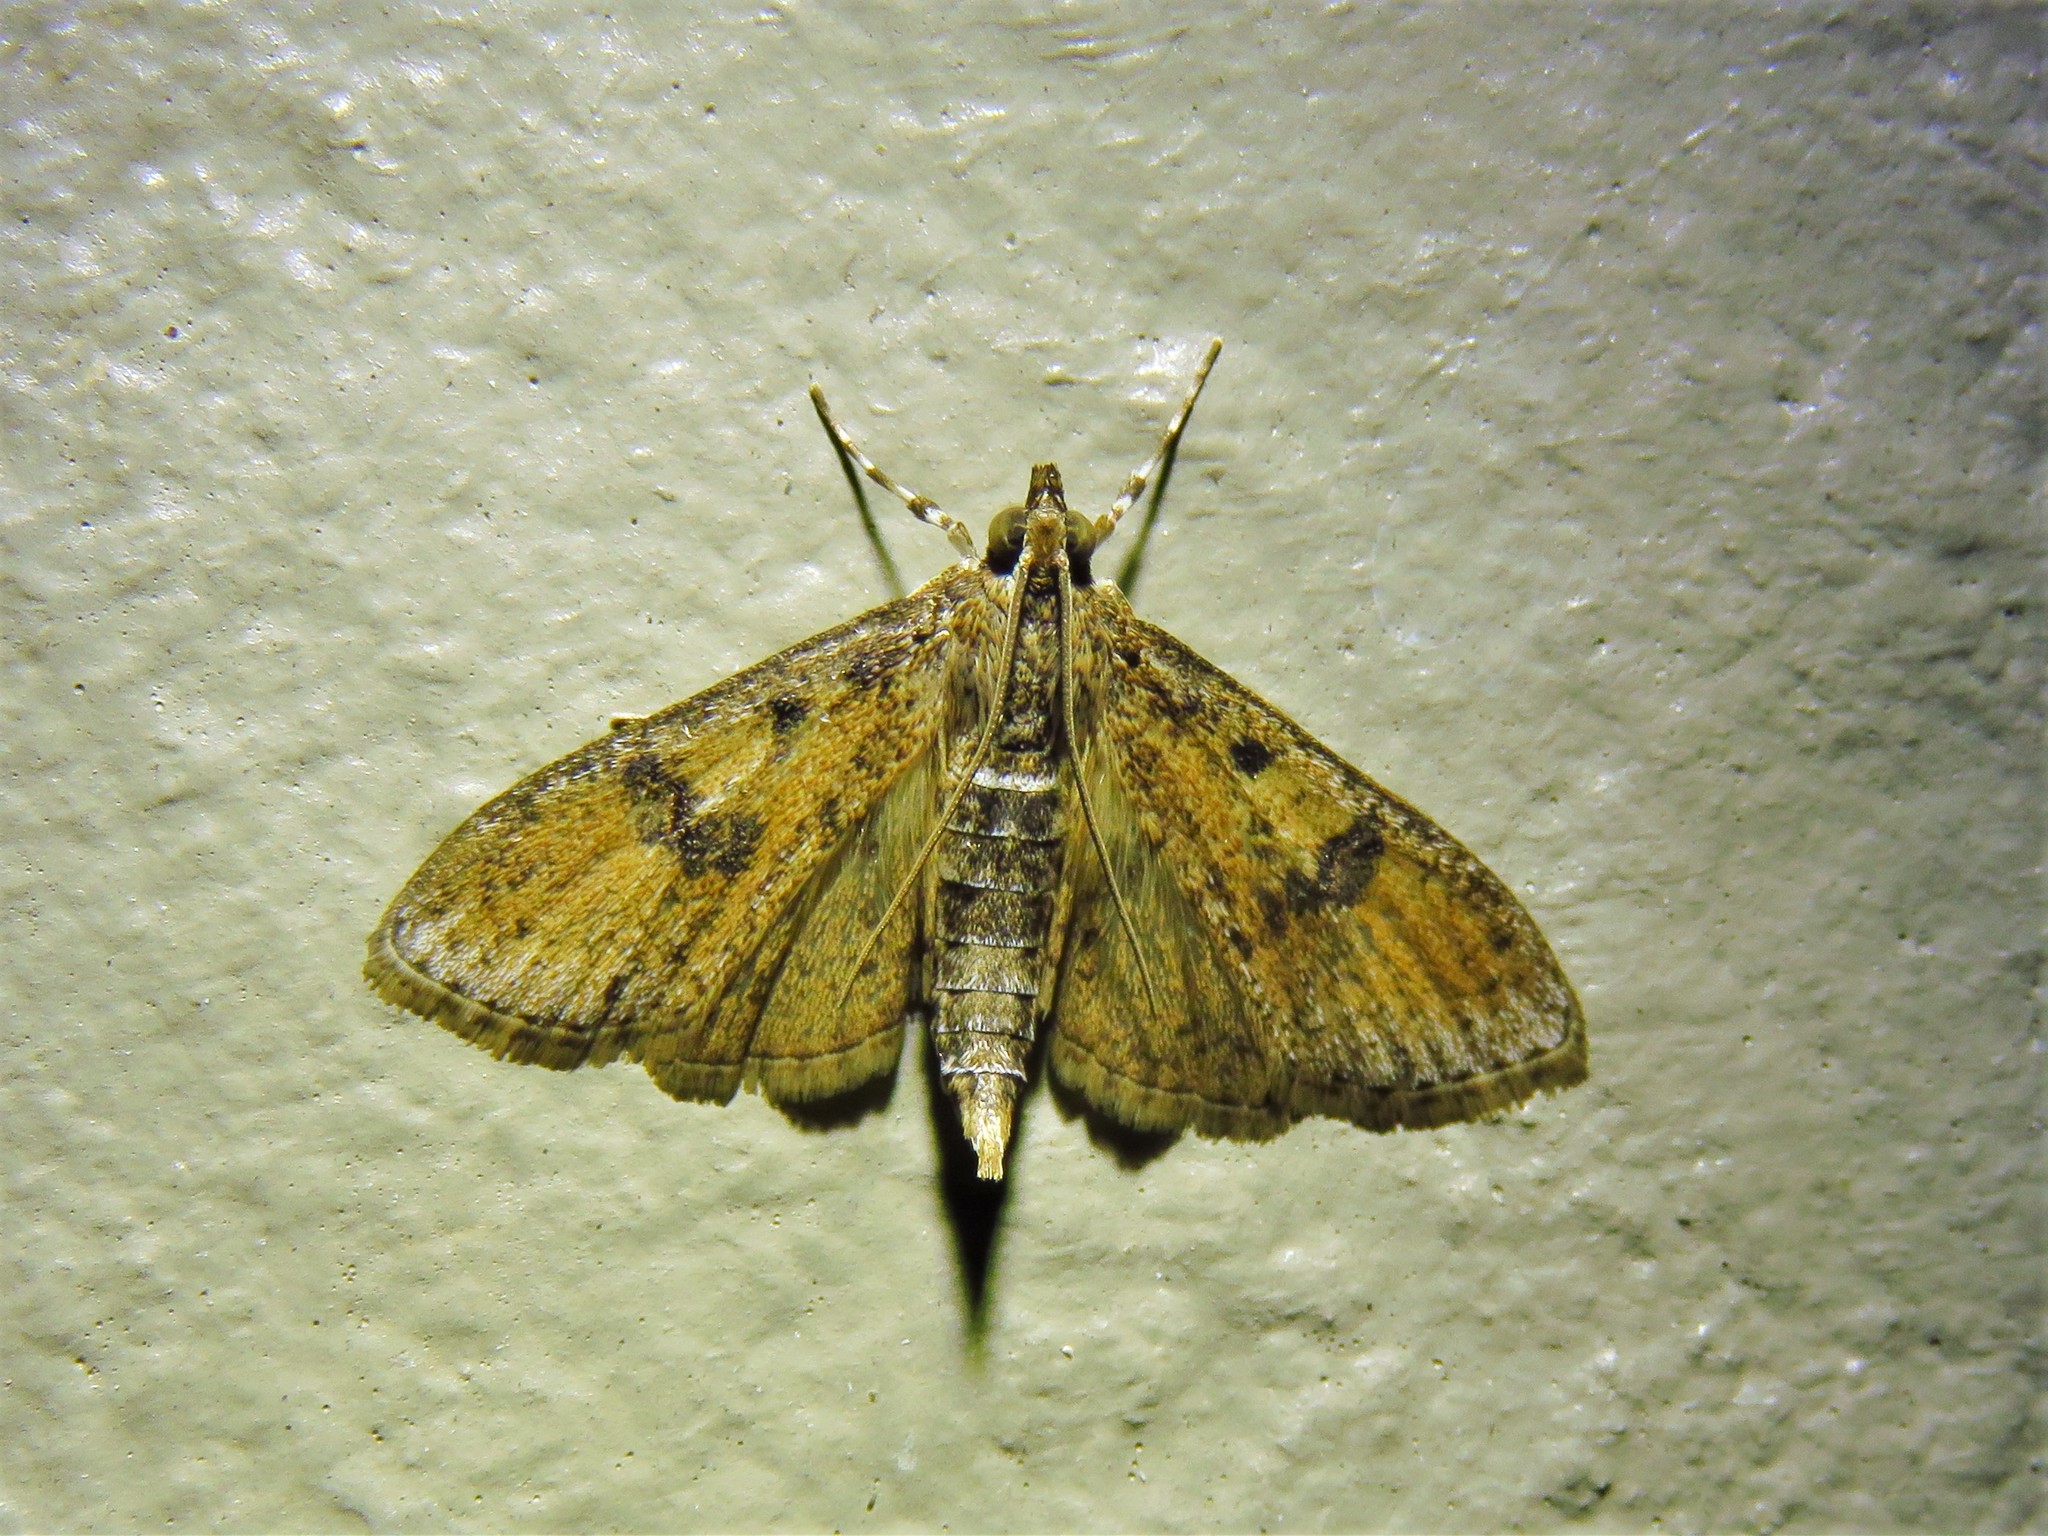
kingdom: Animalia
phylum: Arthropoda
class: Insecta
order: Lepidoptera
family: Crambidae
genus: Palpita
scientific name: Palpita magniferalis
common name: Splendid palpita moth
